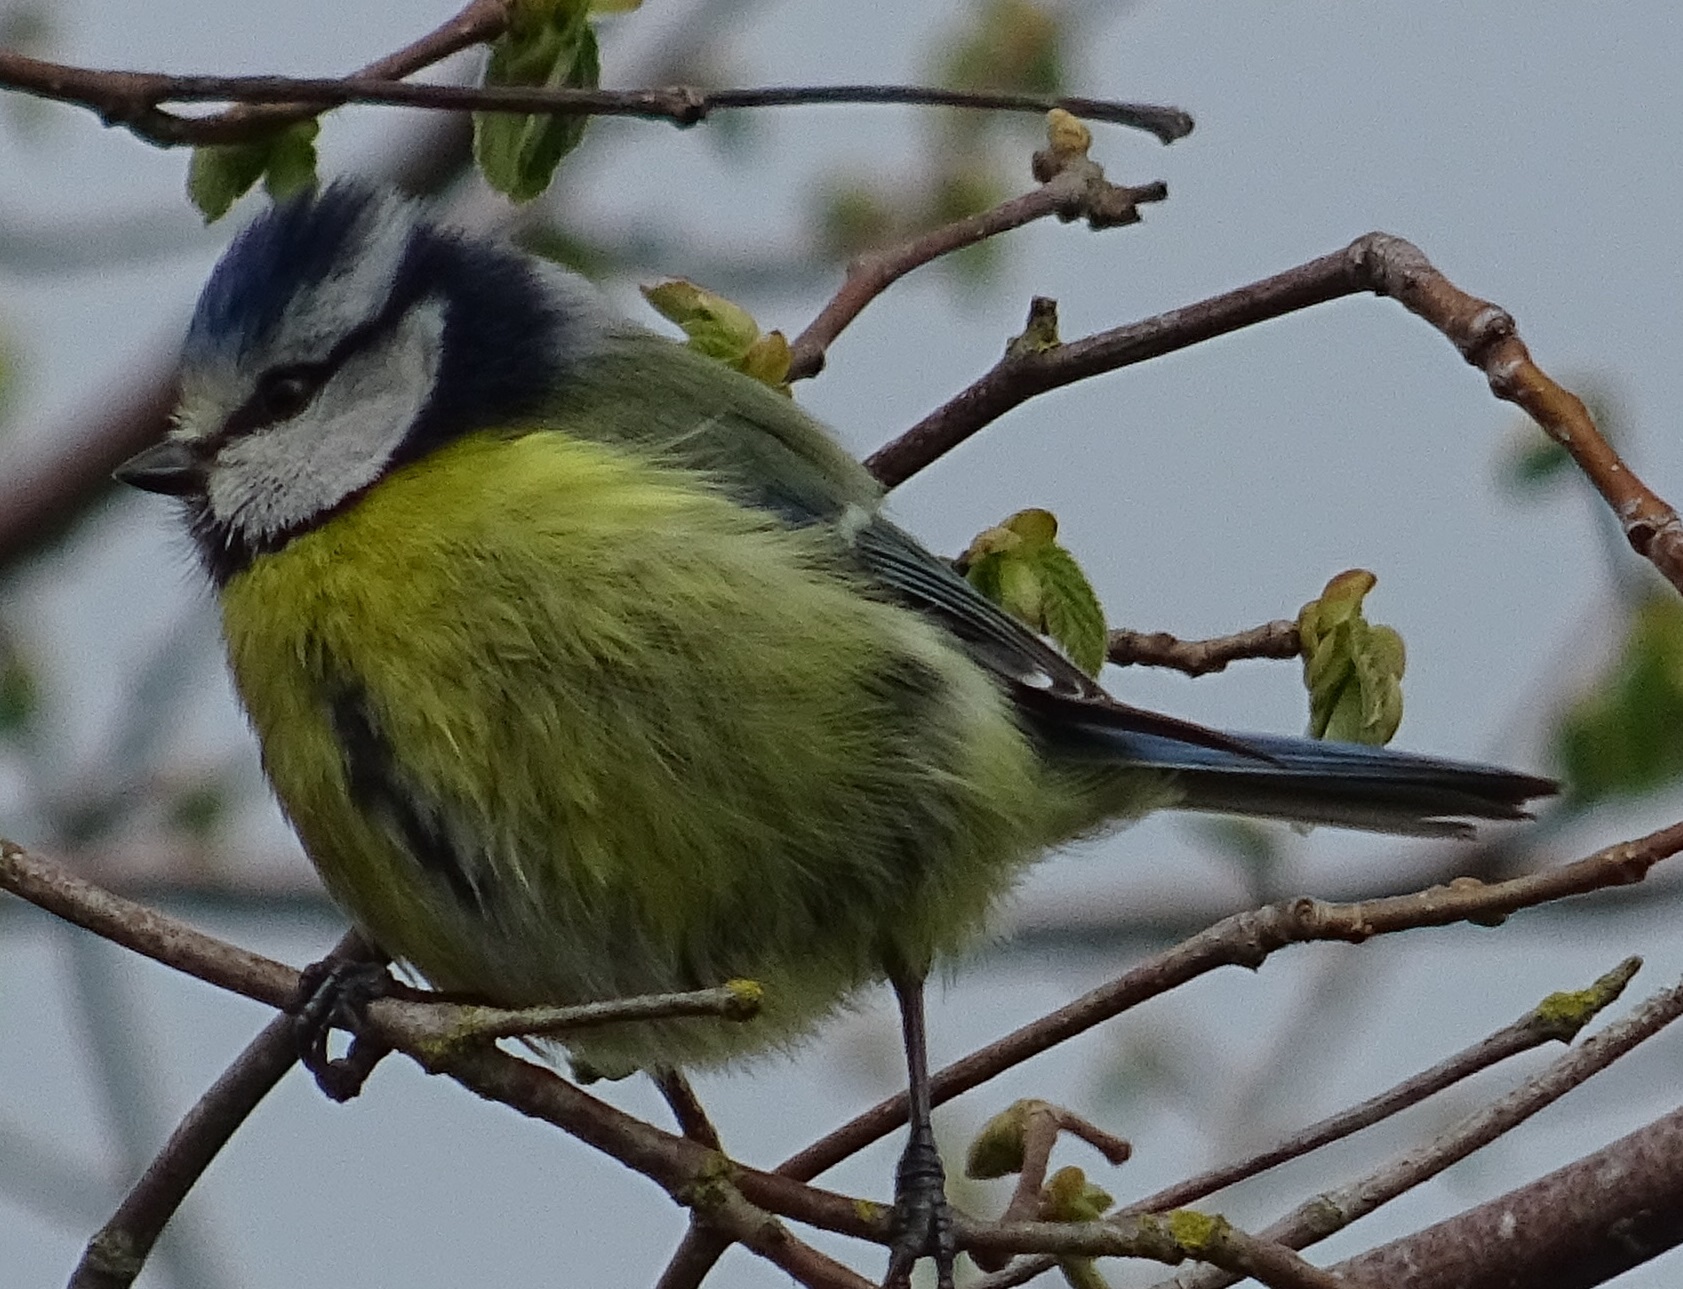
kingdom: Animalia
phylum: Chordata
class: Aves
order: Passeriformes
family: Paridae
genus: Cyanistes
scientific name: Cyanistes caeruleus
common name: Eurasian blue tit
